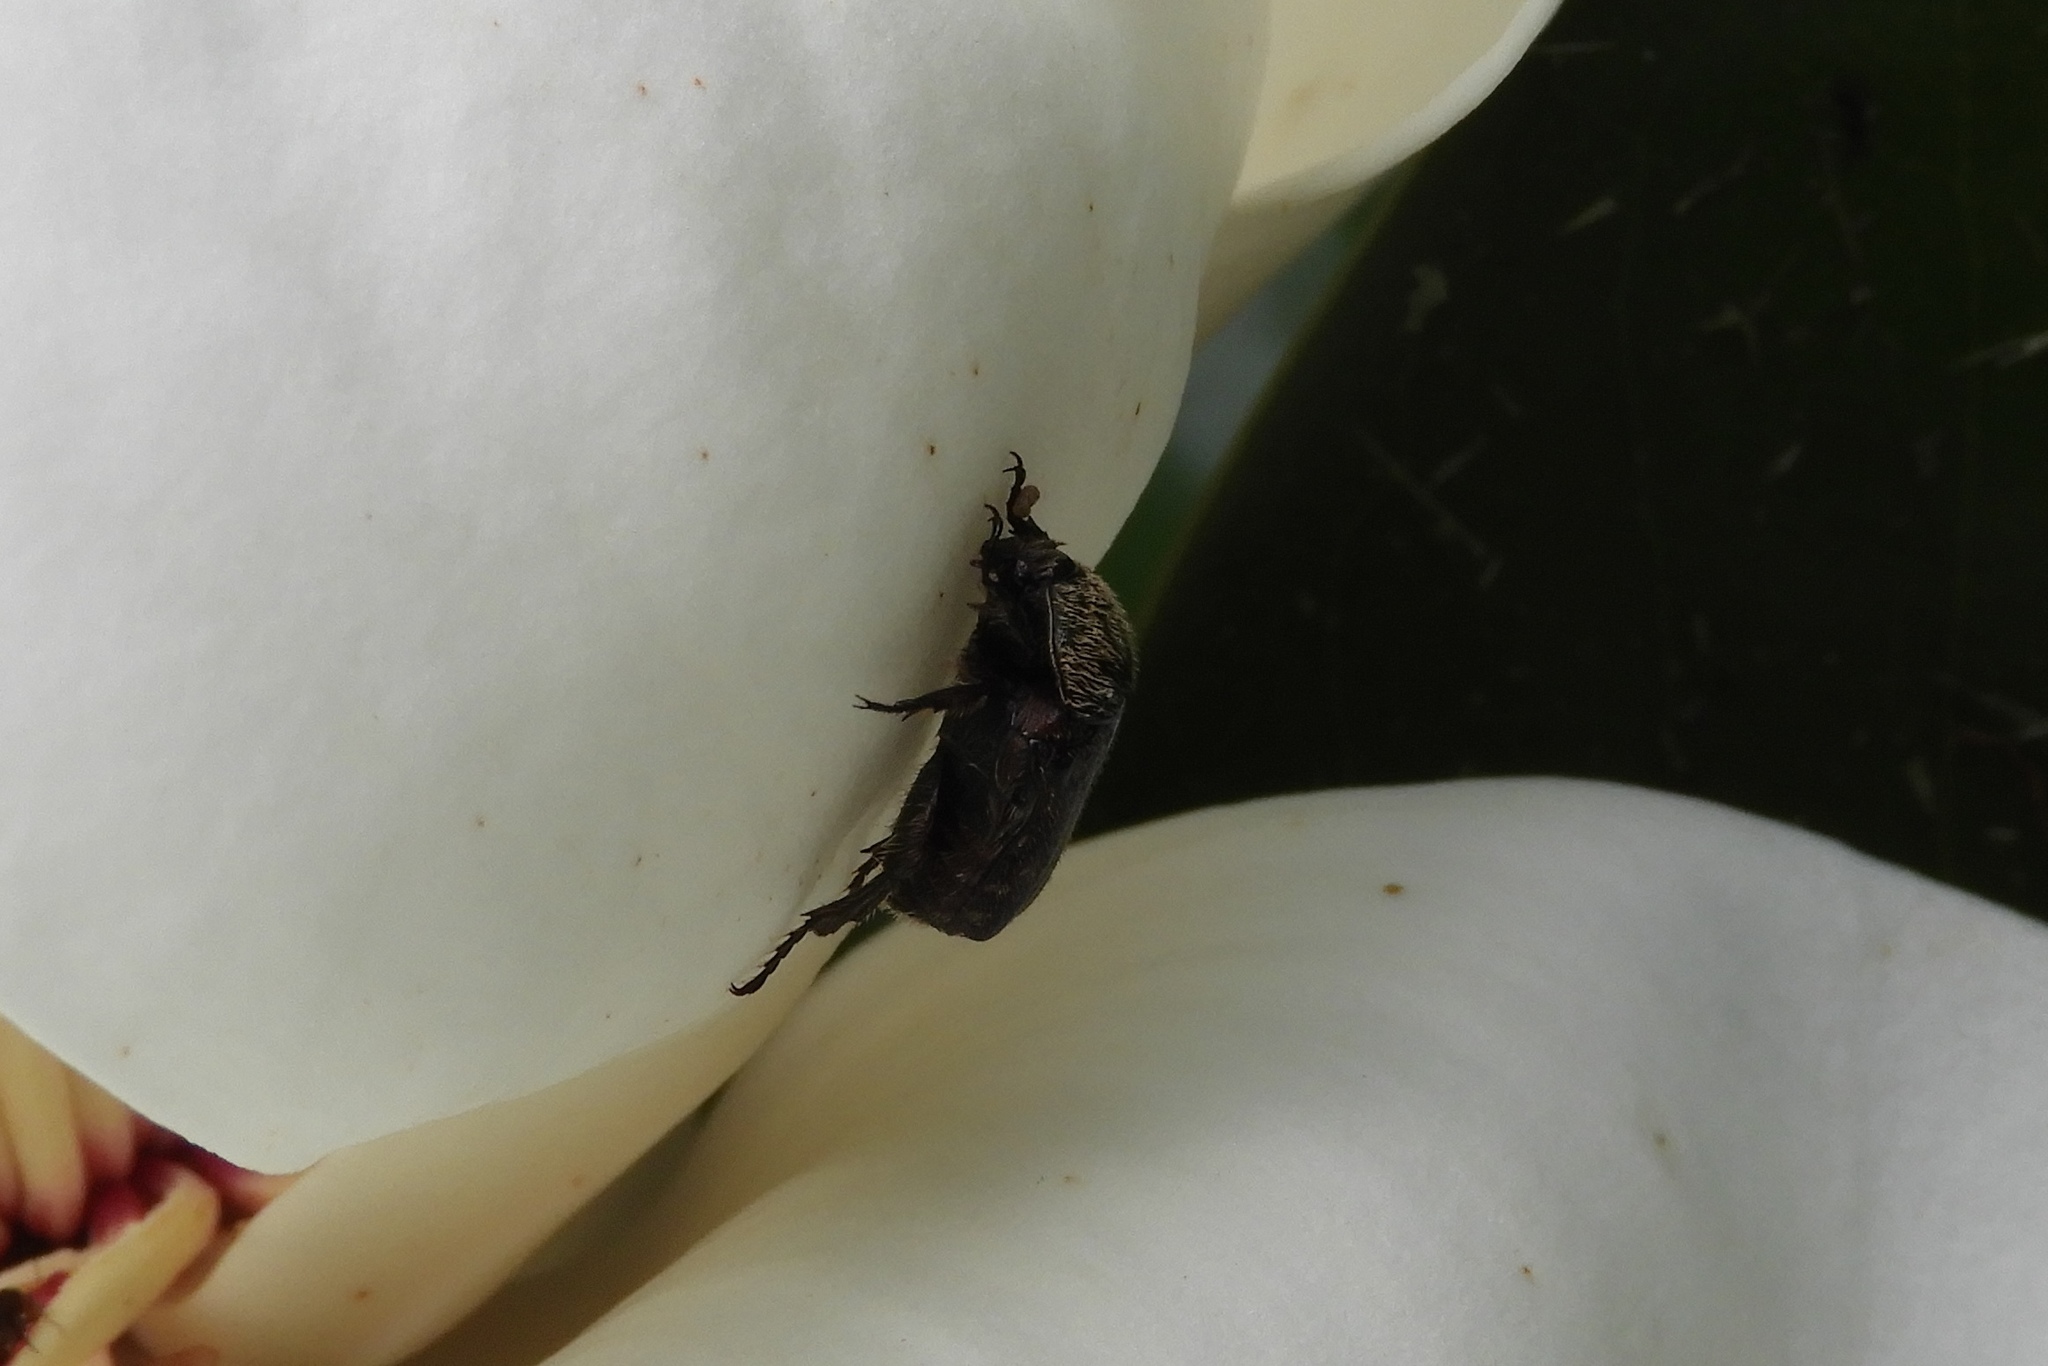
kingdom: Animalia
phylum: Arthropoda
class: Insecta
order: Coleoptera
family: Scarabaeidae
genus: Euphoria
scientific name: Euphoria sepulcralis
